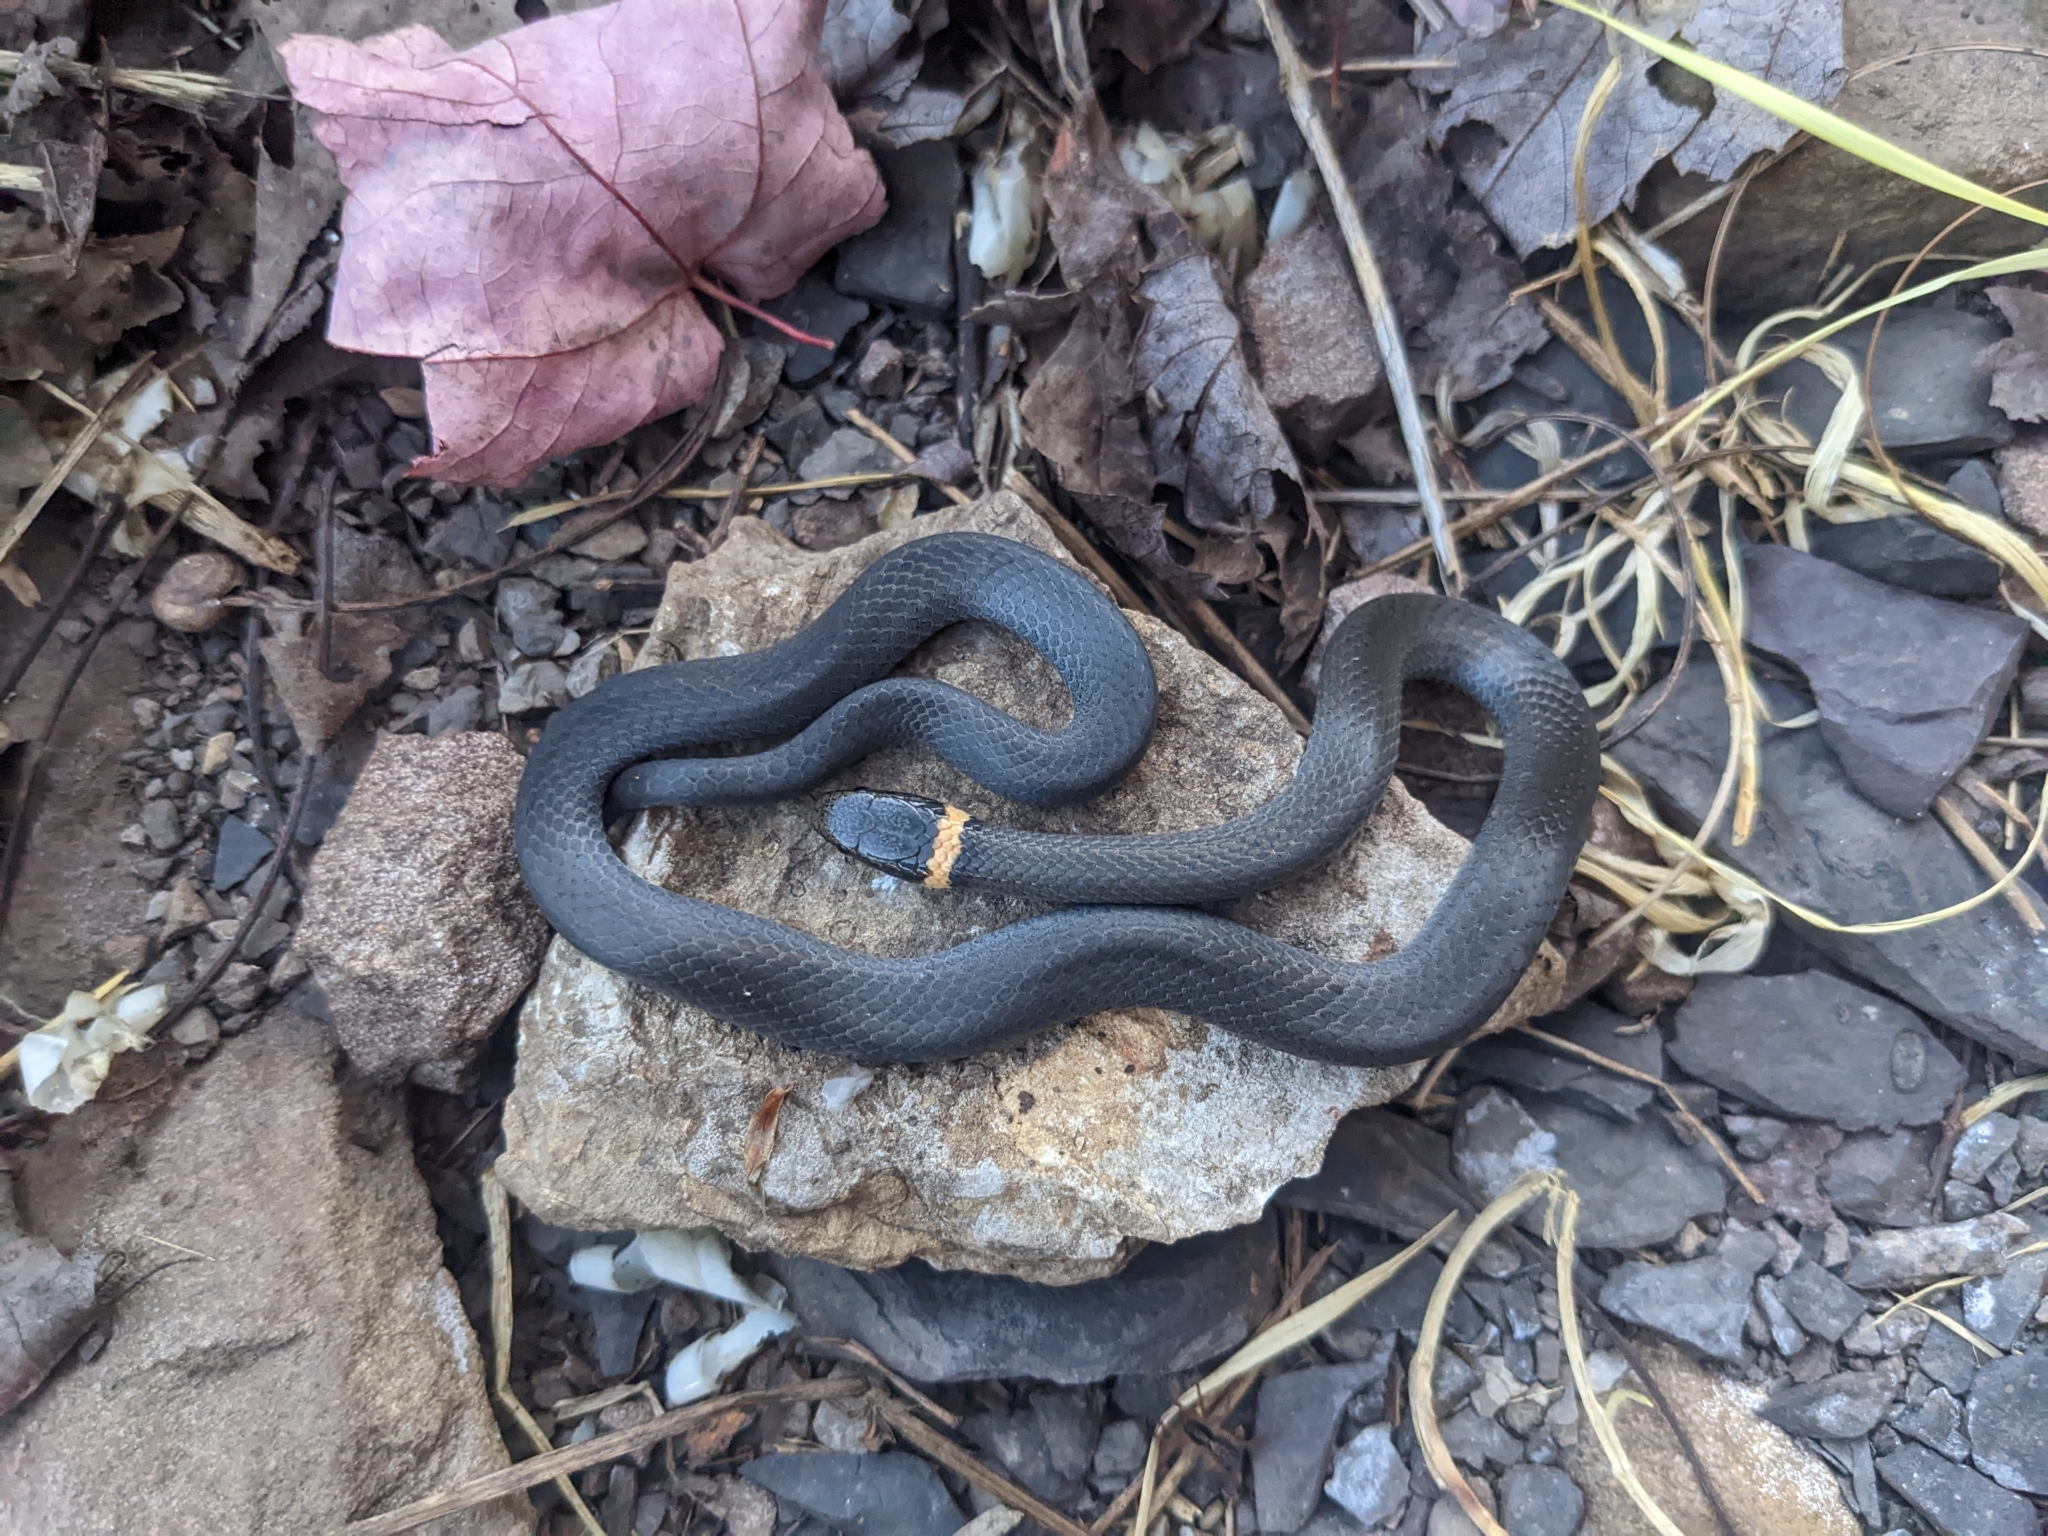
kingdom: Animalia
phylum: Chordata
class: Squamata
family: Colubridae
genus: Diadophis
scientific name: Diadophis punctatus
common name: Ringneck snake
